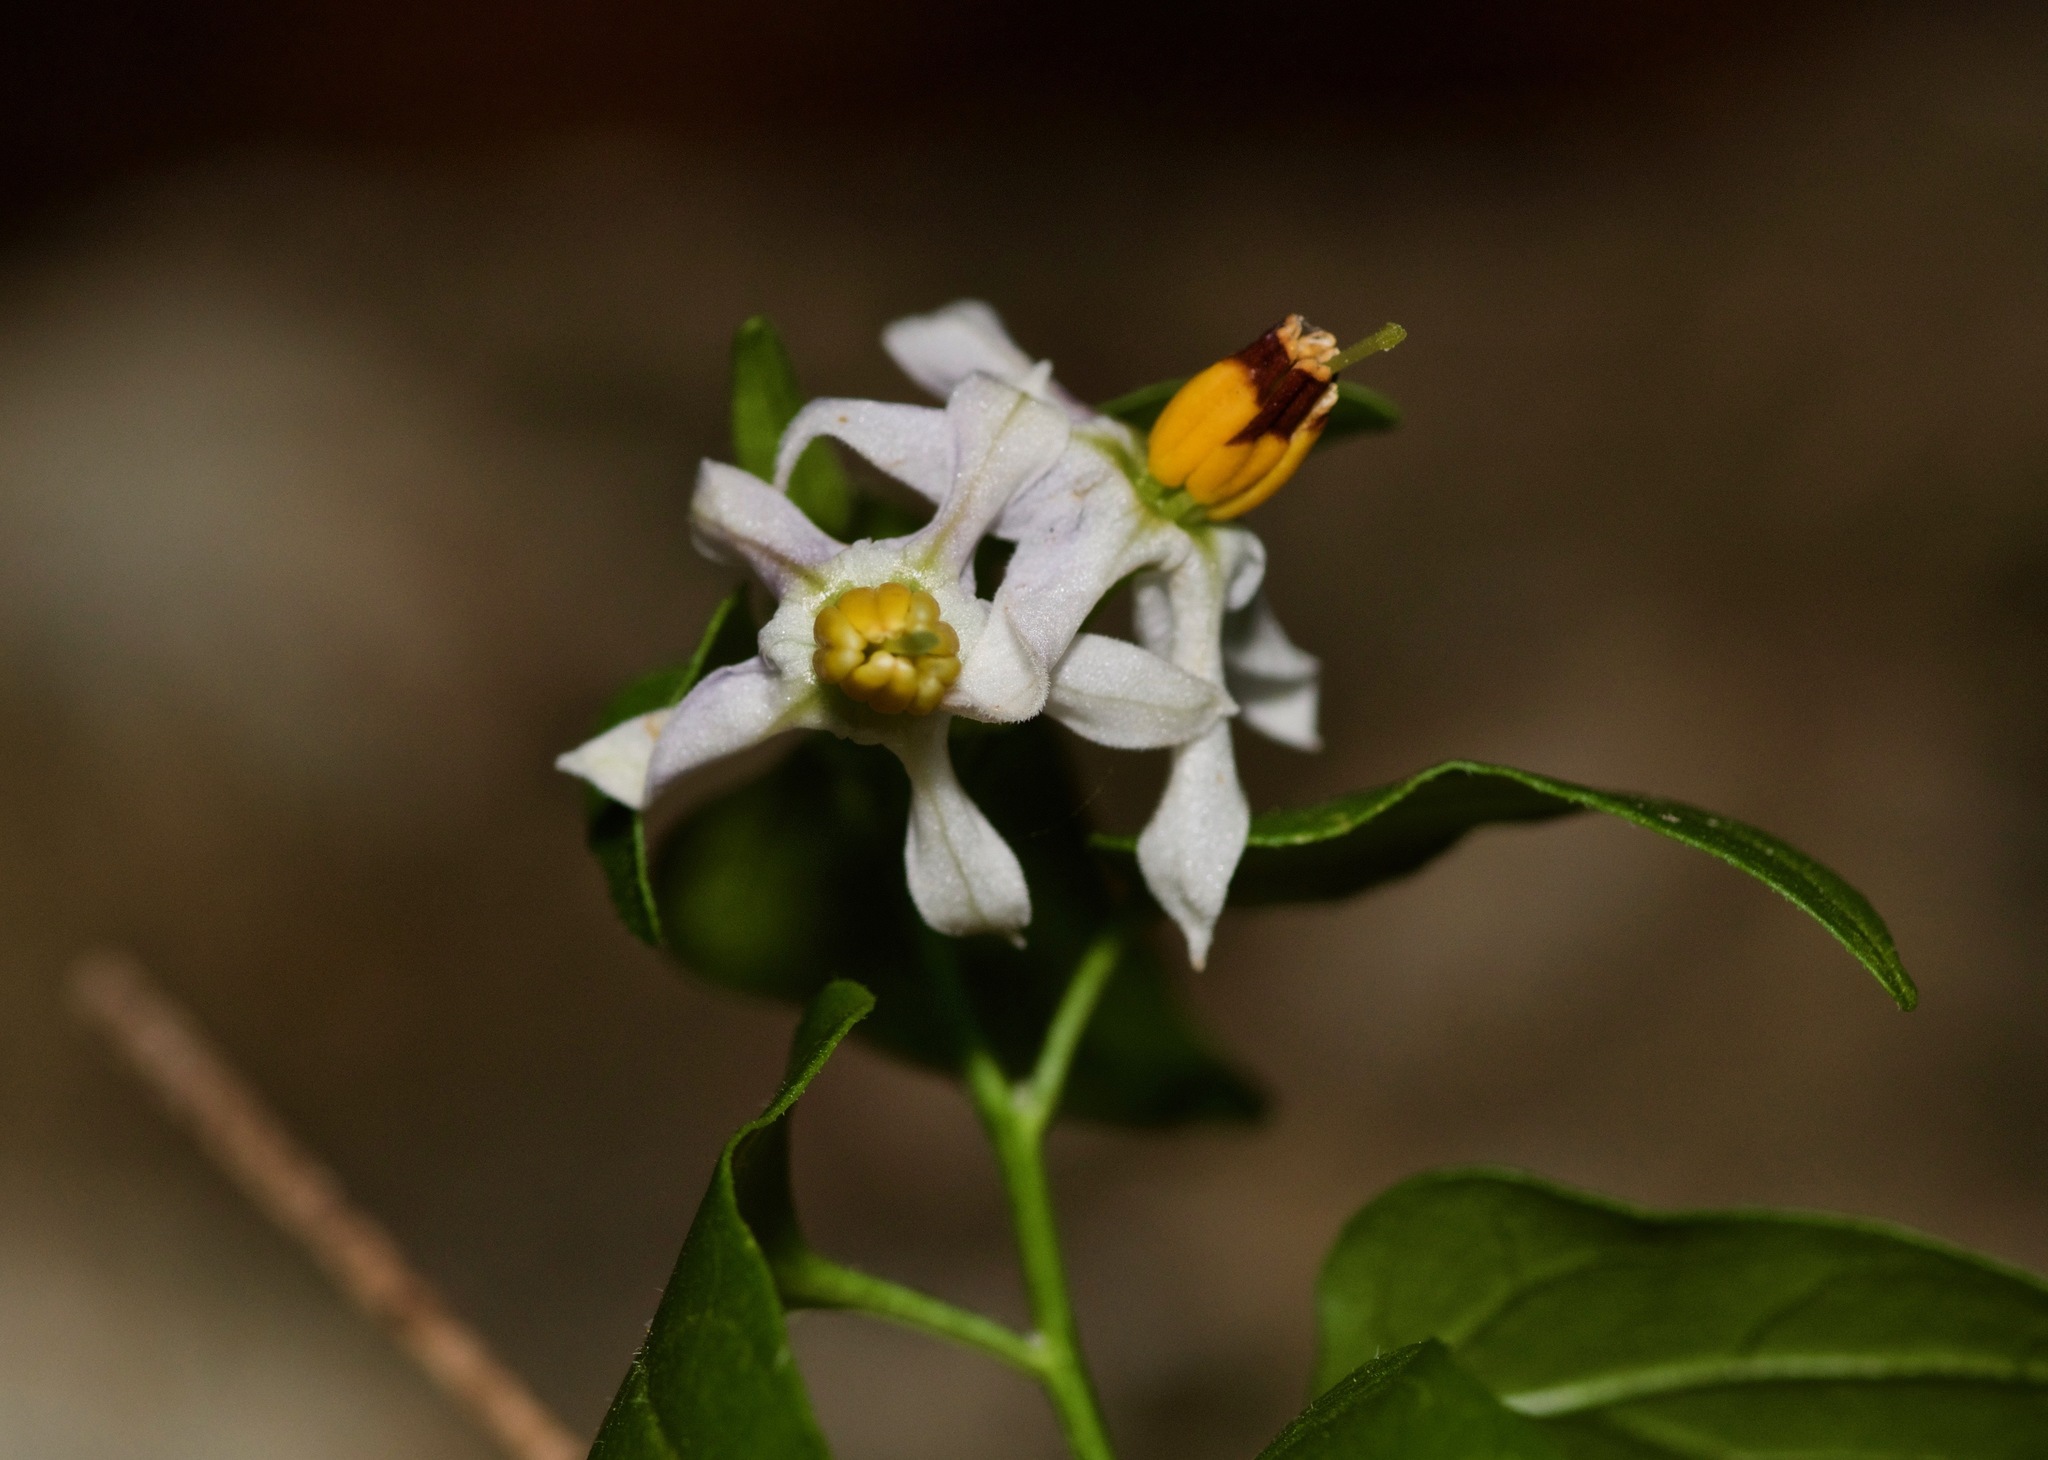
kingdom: Plantae
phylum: Tracheophyta
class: Magnoliopsida
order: Solanales
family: Solanaceae
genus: Solanum
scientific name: Solanum triquetrum
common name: Texas nightshade
